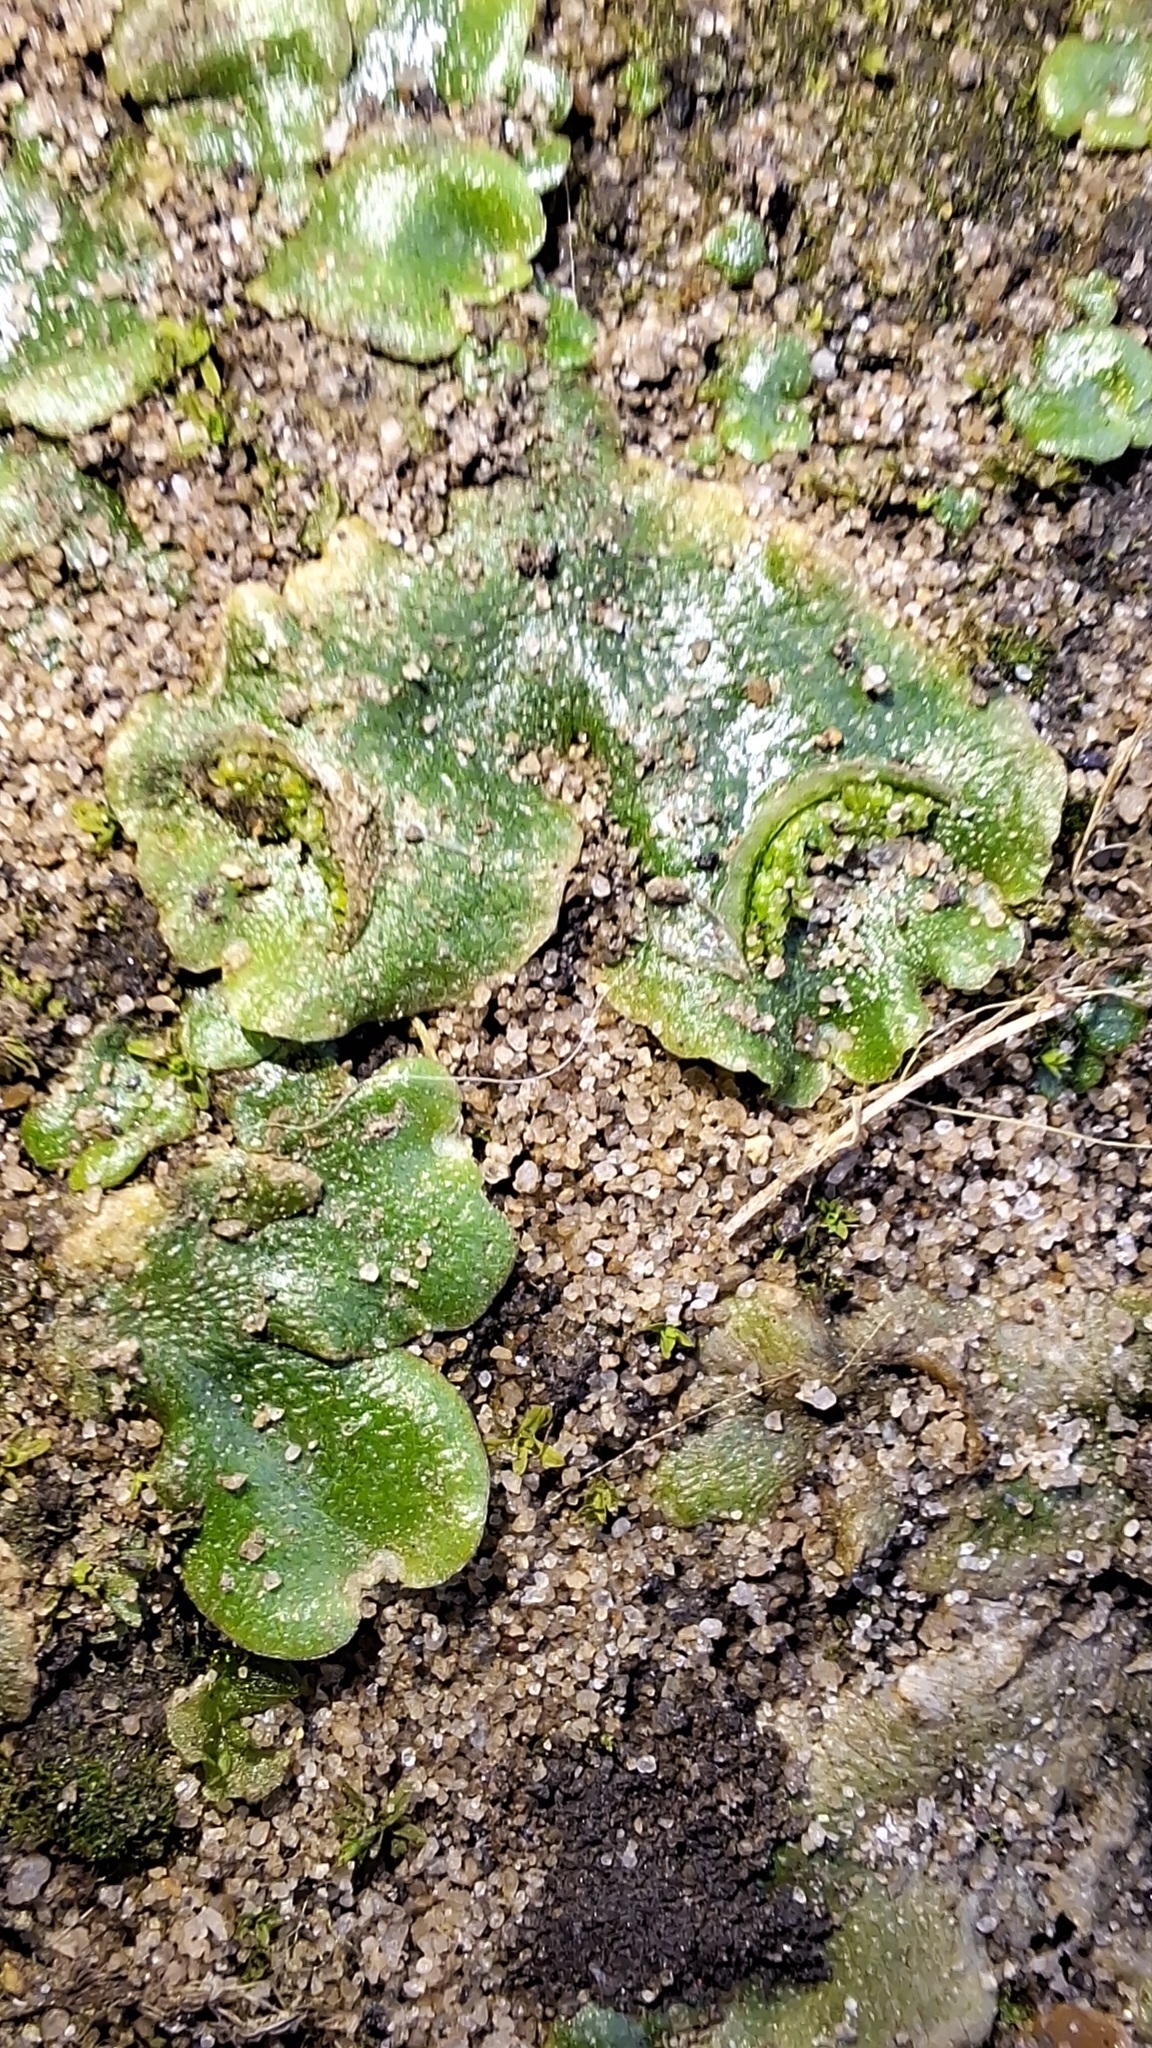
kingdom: Plantae
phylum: Marchantiophyta
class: Marchantiopsida
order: Lunulariales
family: Lunulariaceae
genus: Lunularia
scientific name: Lunularia cruciata
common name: Crescent-cup liverwort
